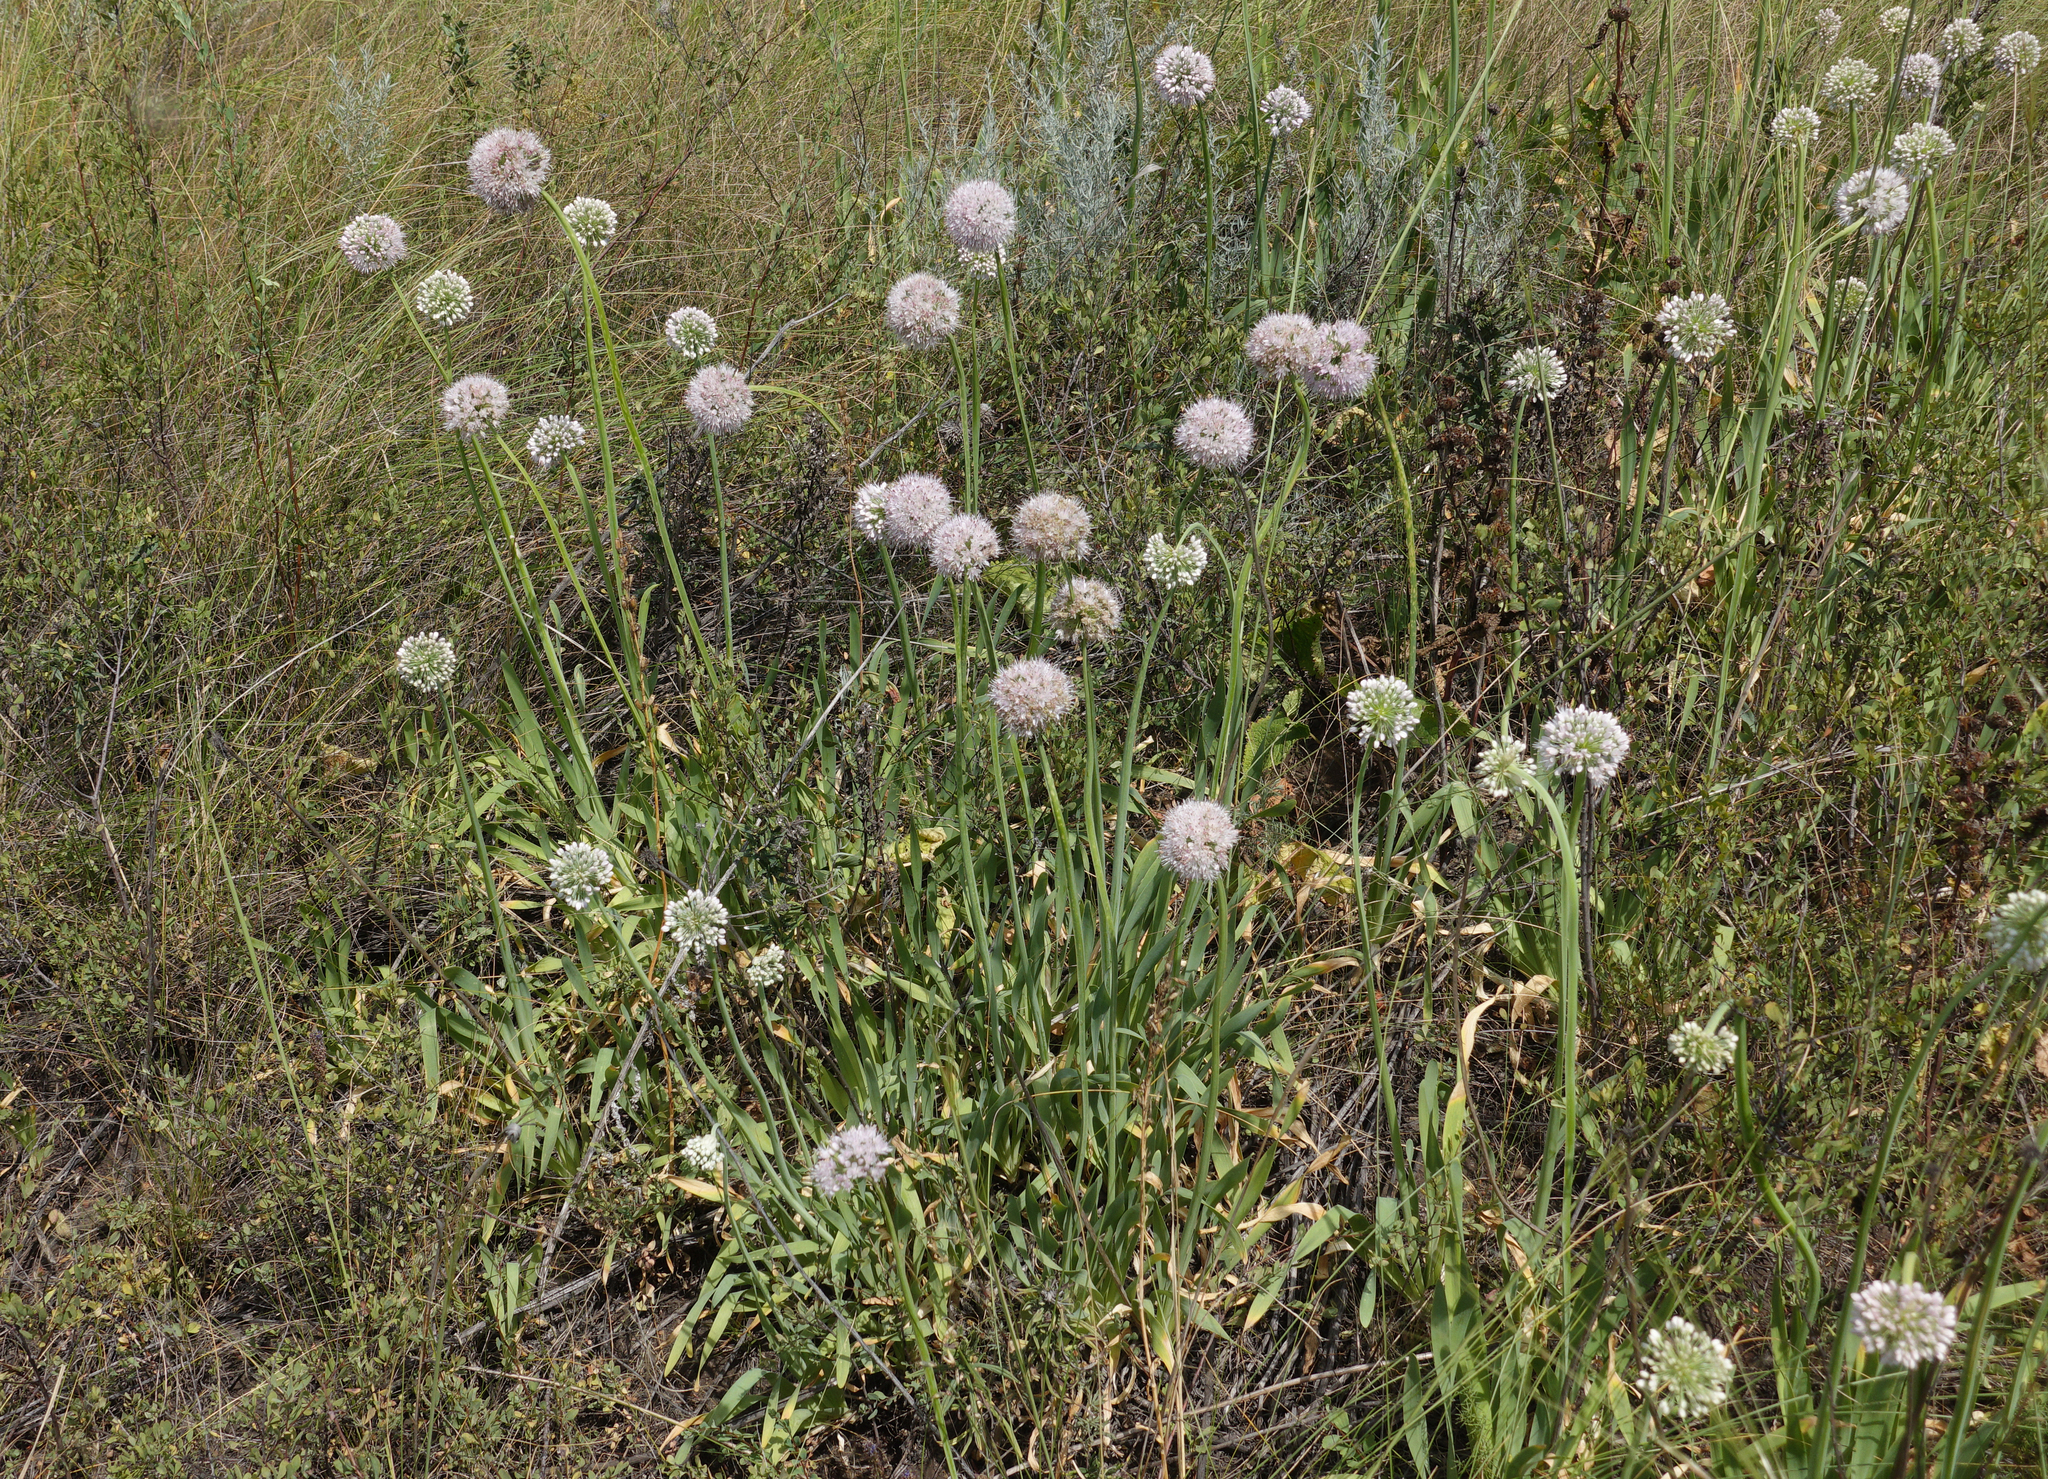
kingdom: Plantae
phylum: Tracheophyta
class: Liliopsida
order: Asparagales
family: Amaryllidaceae
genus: Allium
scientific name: Allium nutans
